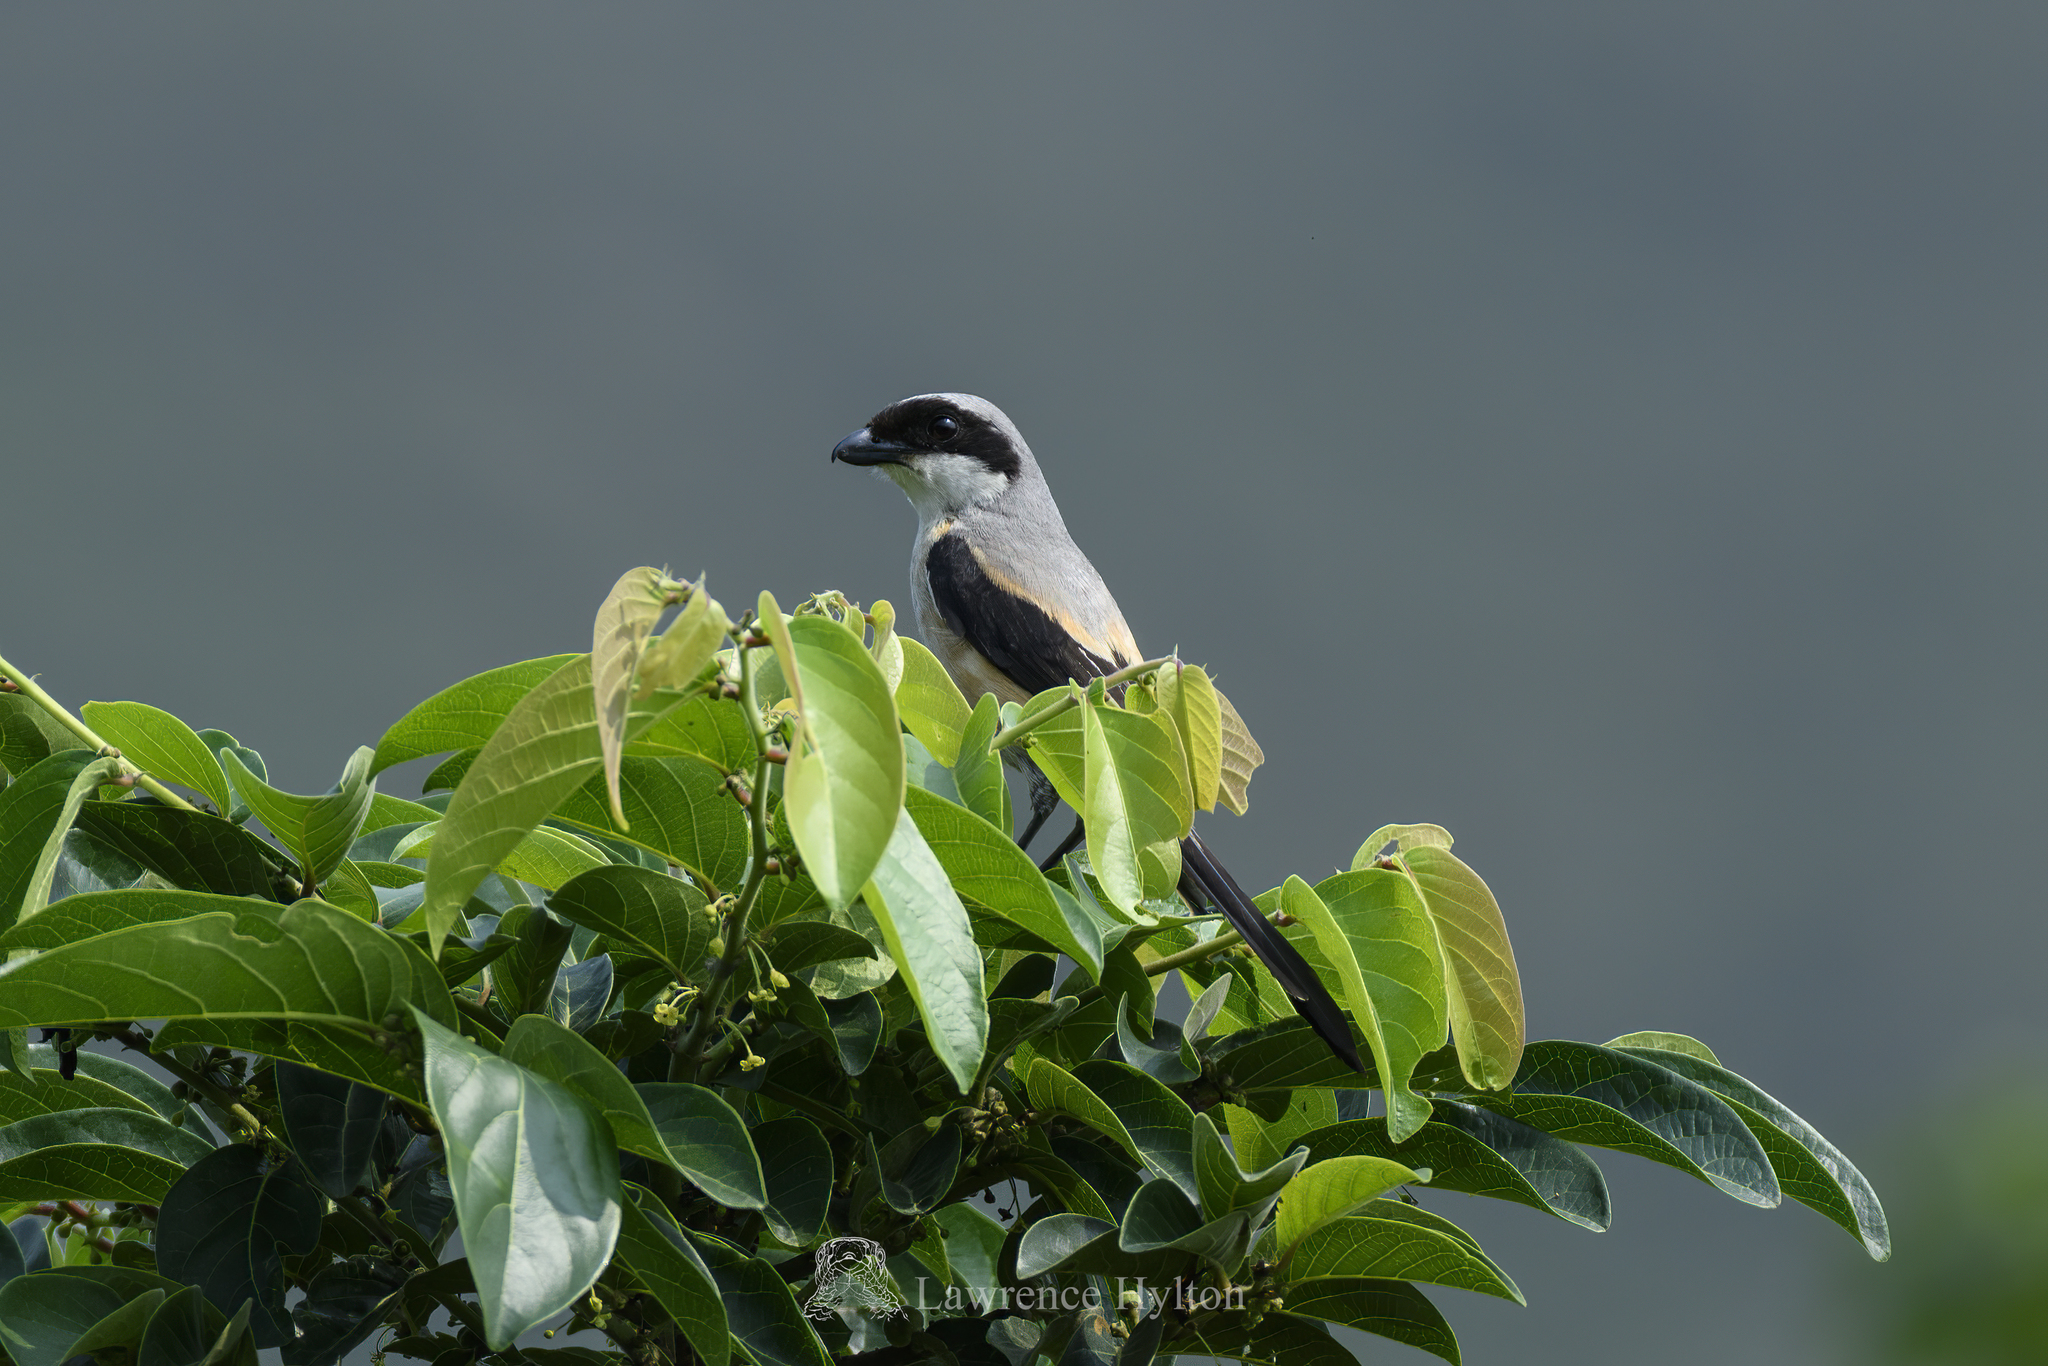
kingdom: Animalia
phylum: Chordata
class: Aves
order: Passeriformes
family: Laniidae
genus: Lanius
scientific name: Lanius schach
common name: Long-tailed shrike
